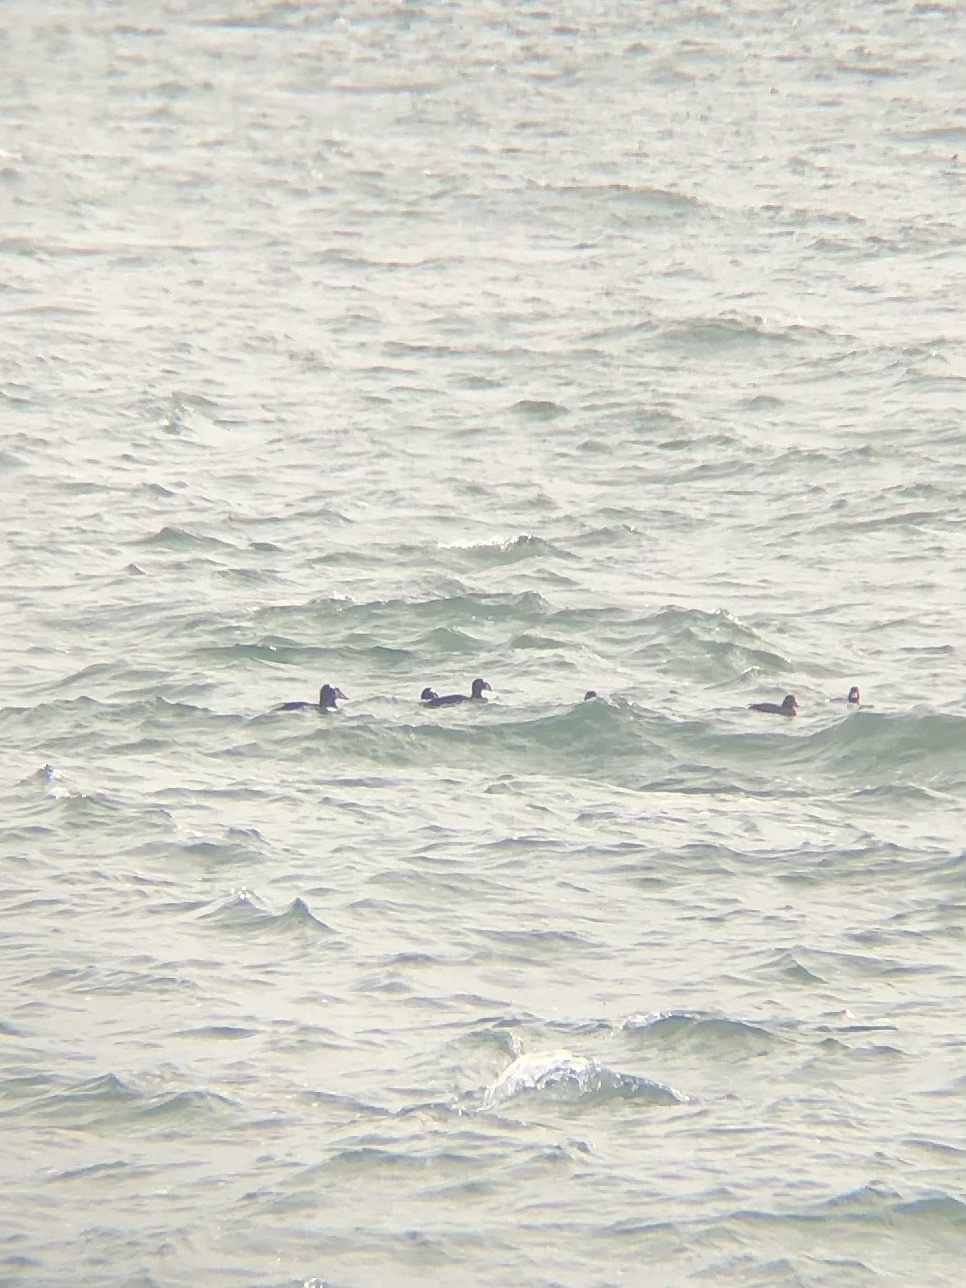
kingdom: Animalia
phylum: Chordata
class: Aves
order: Anseriformes
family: Anatidae
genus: Melanitta
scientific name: Melanitta perspicillata
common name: Surf scoter
